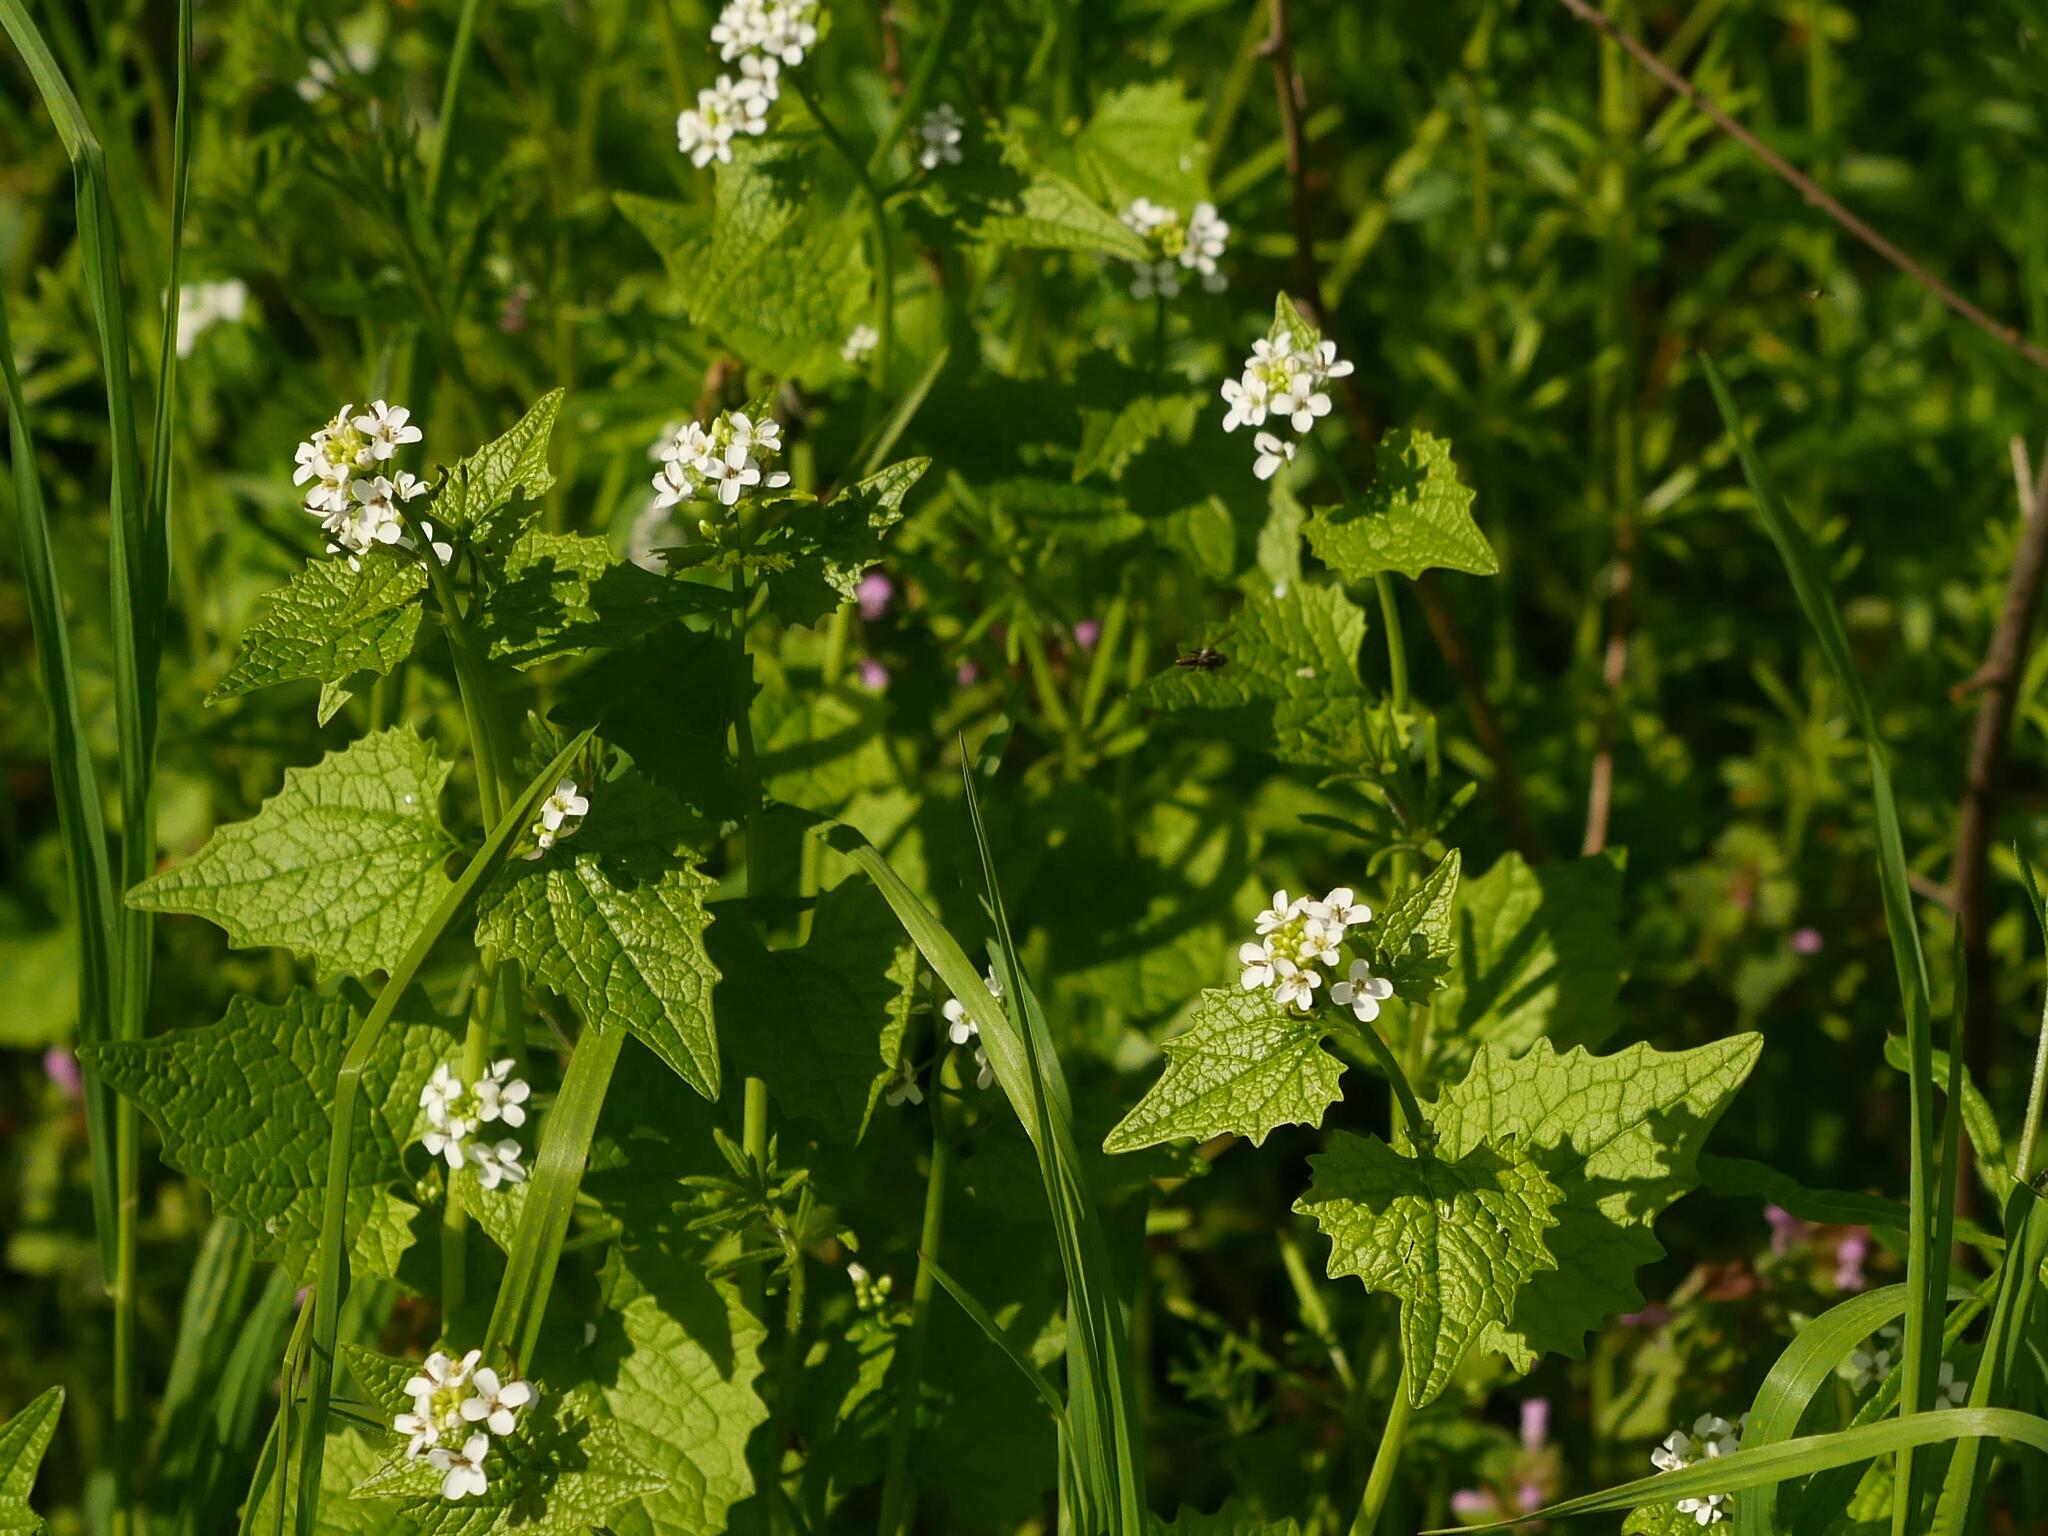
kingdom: Plantae
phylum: Tracheophyta
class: Magnoliopsida
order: Brassicales
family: Brassicaceae
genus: Alliaria
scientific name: Alliaria petiolata
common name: Garlic mustard
